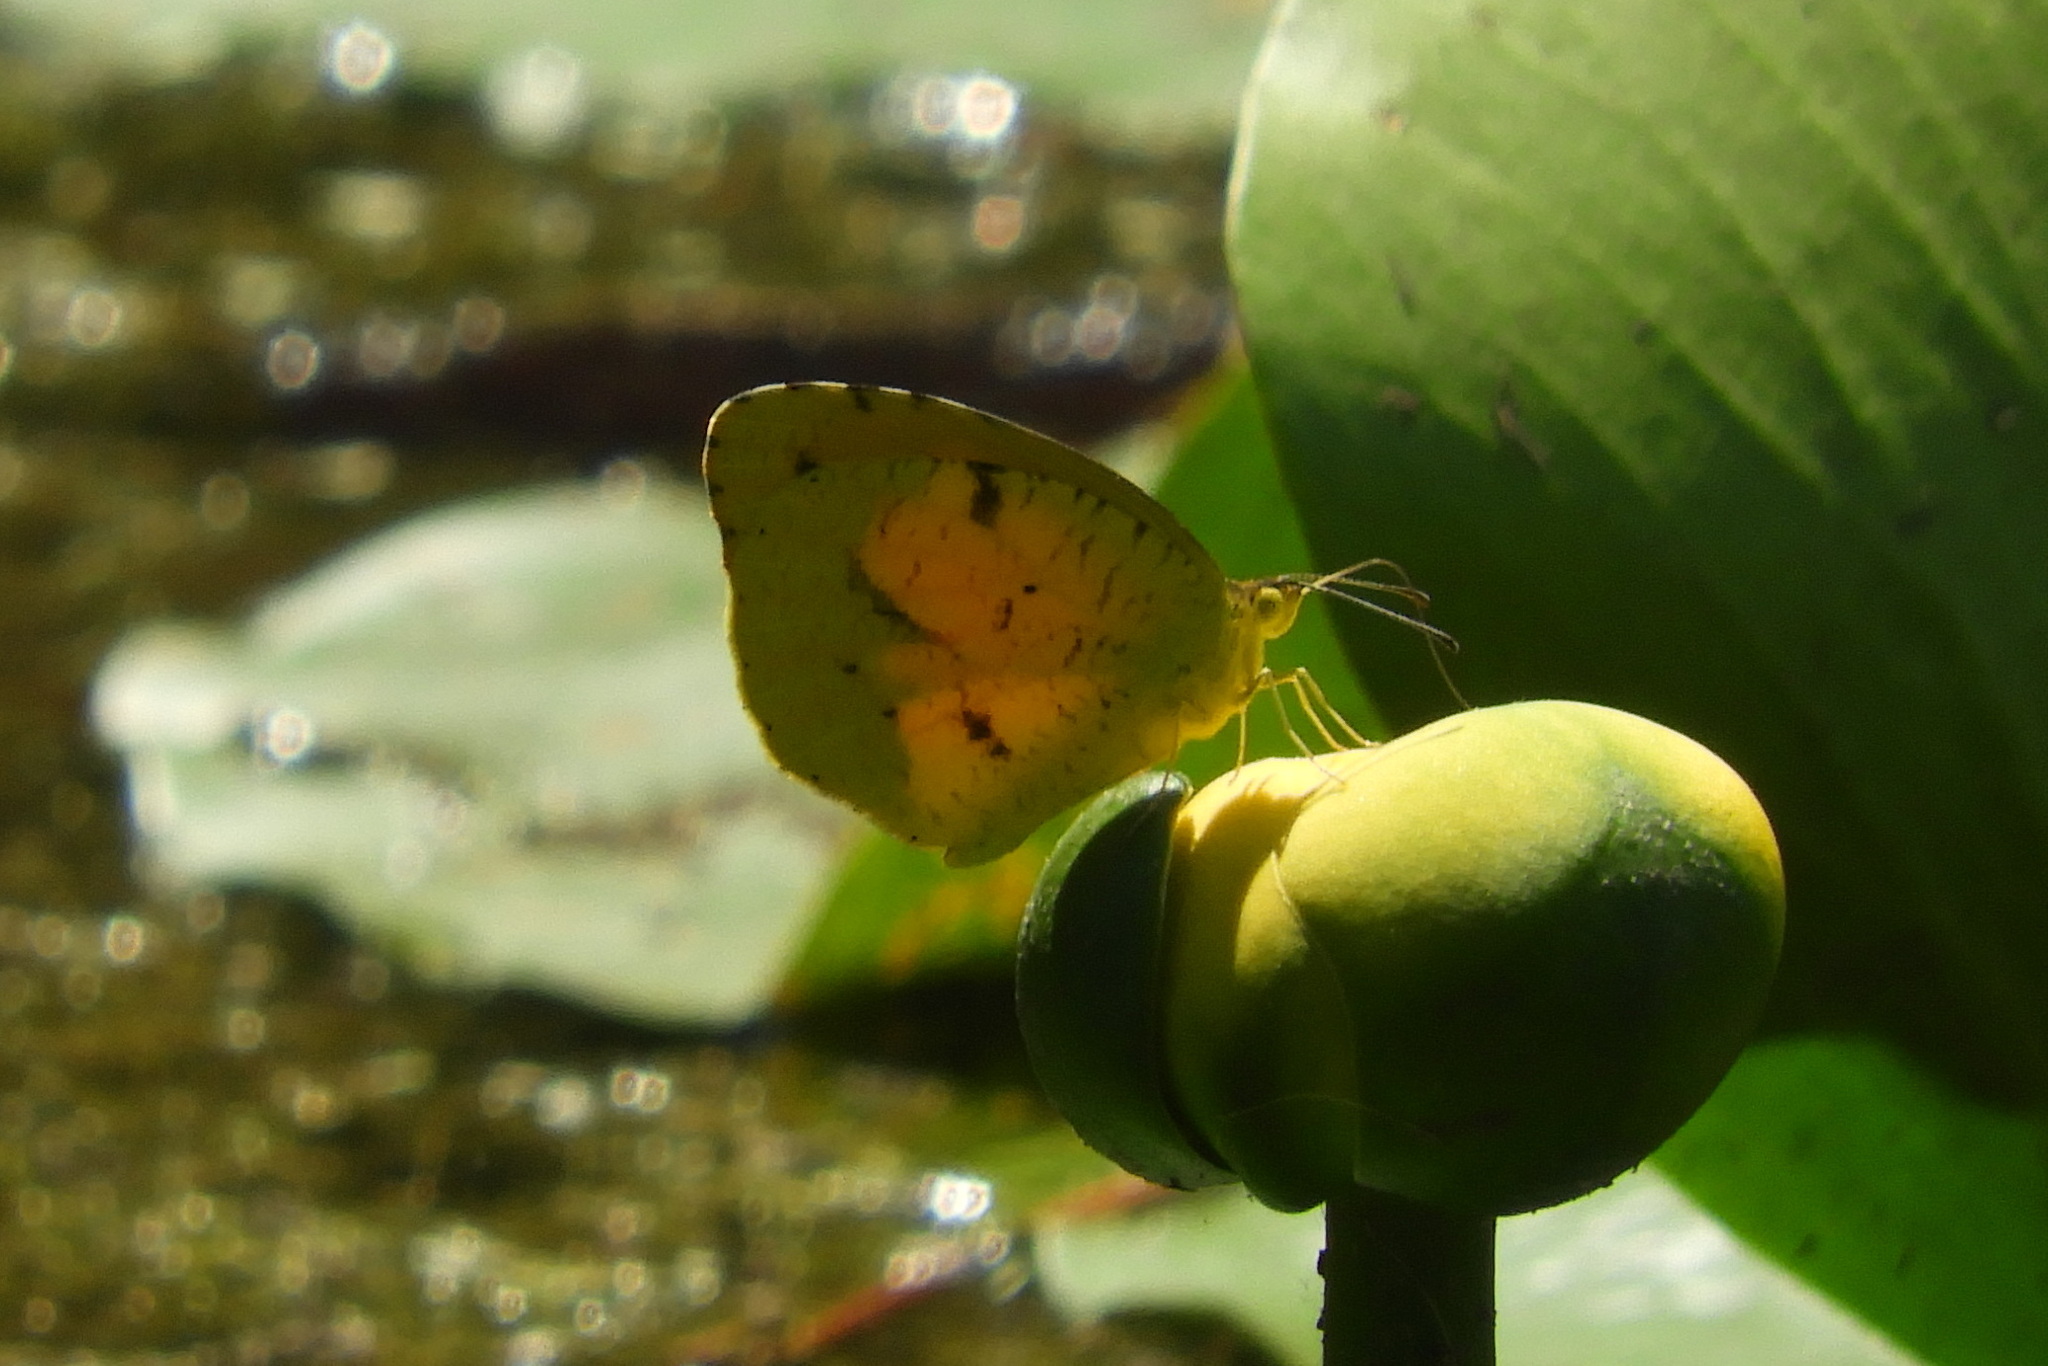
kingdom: Animalia
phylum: Arthropoda
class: Insecta
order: Lepidoptera
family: Pieridae
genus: Abaeis
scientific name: Abaeis nicippe
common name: Sleepy orange
